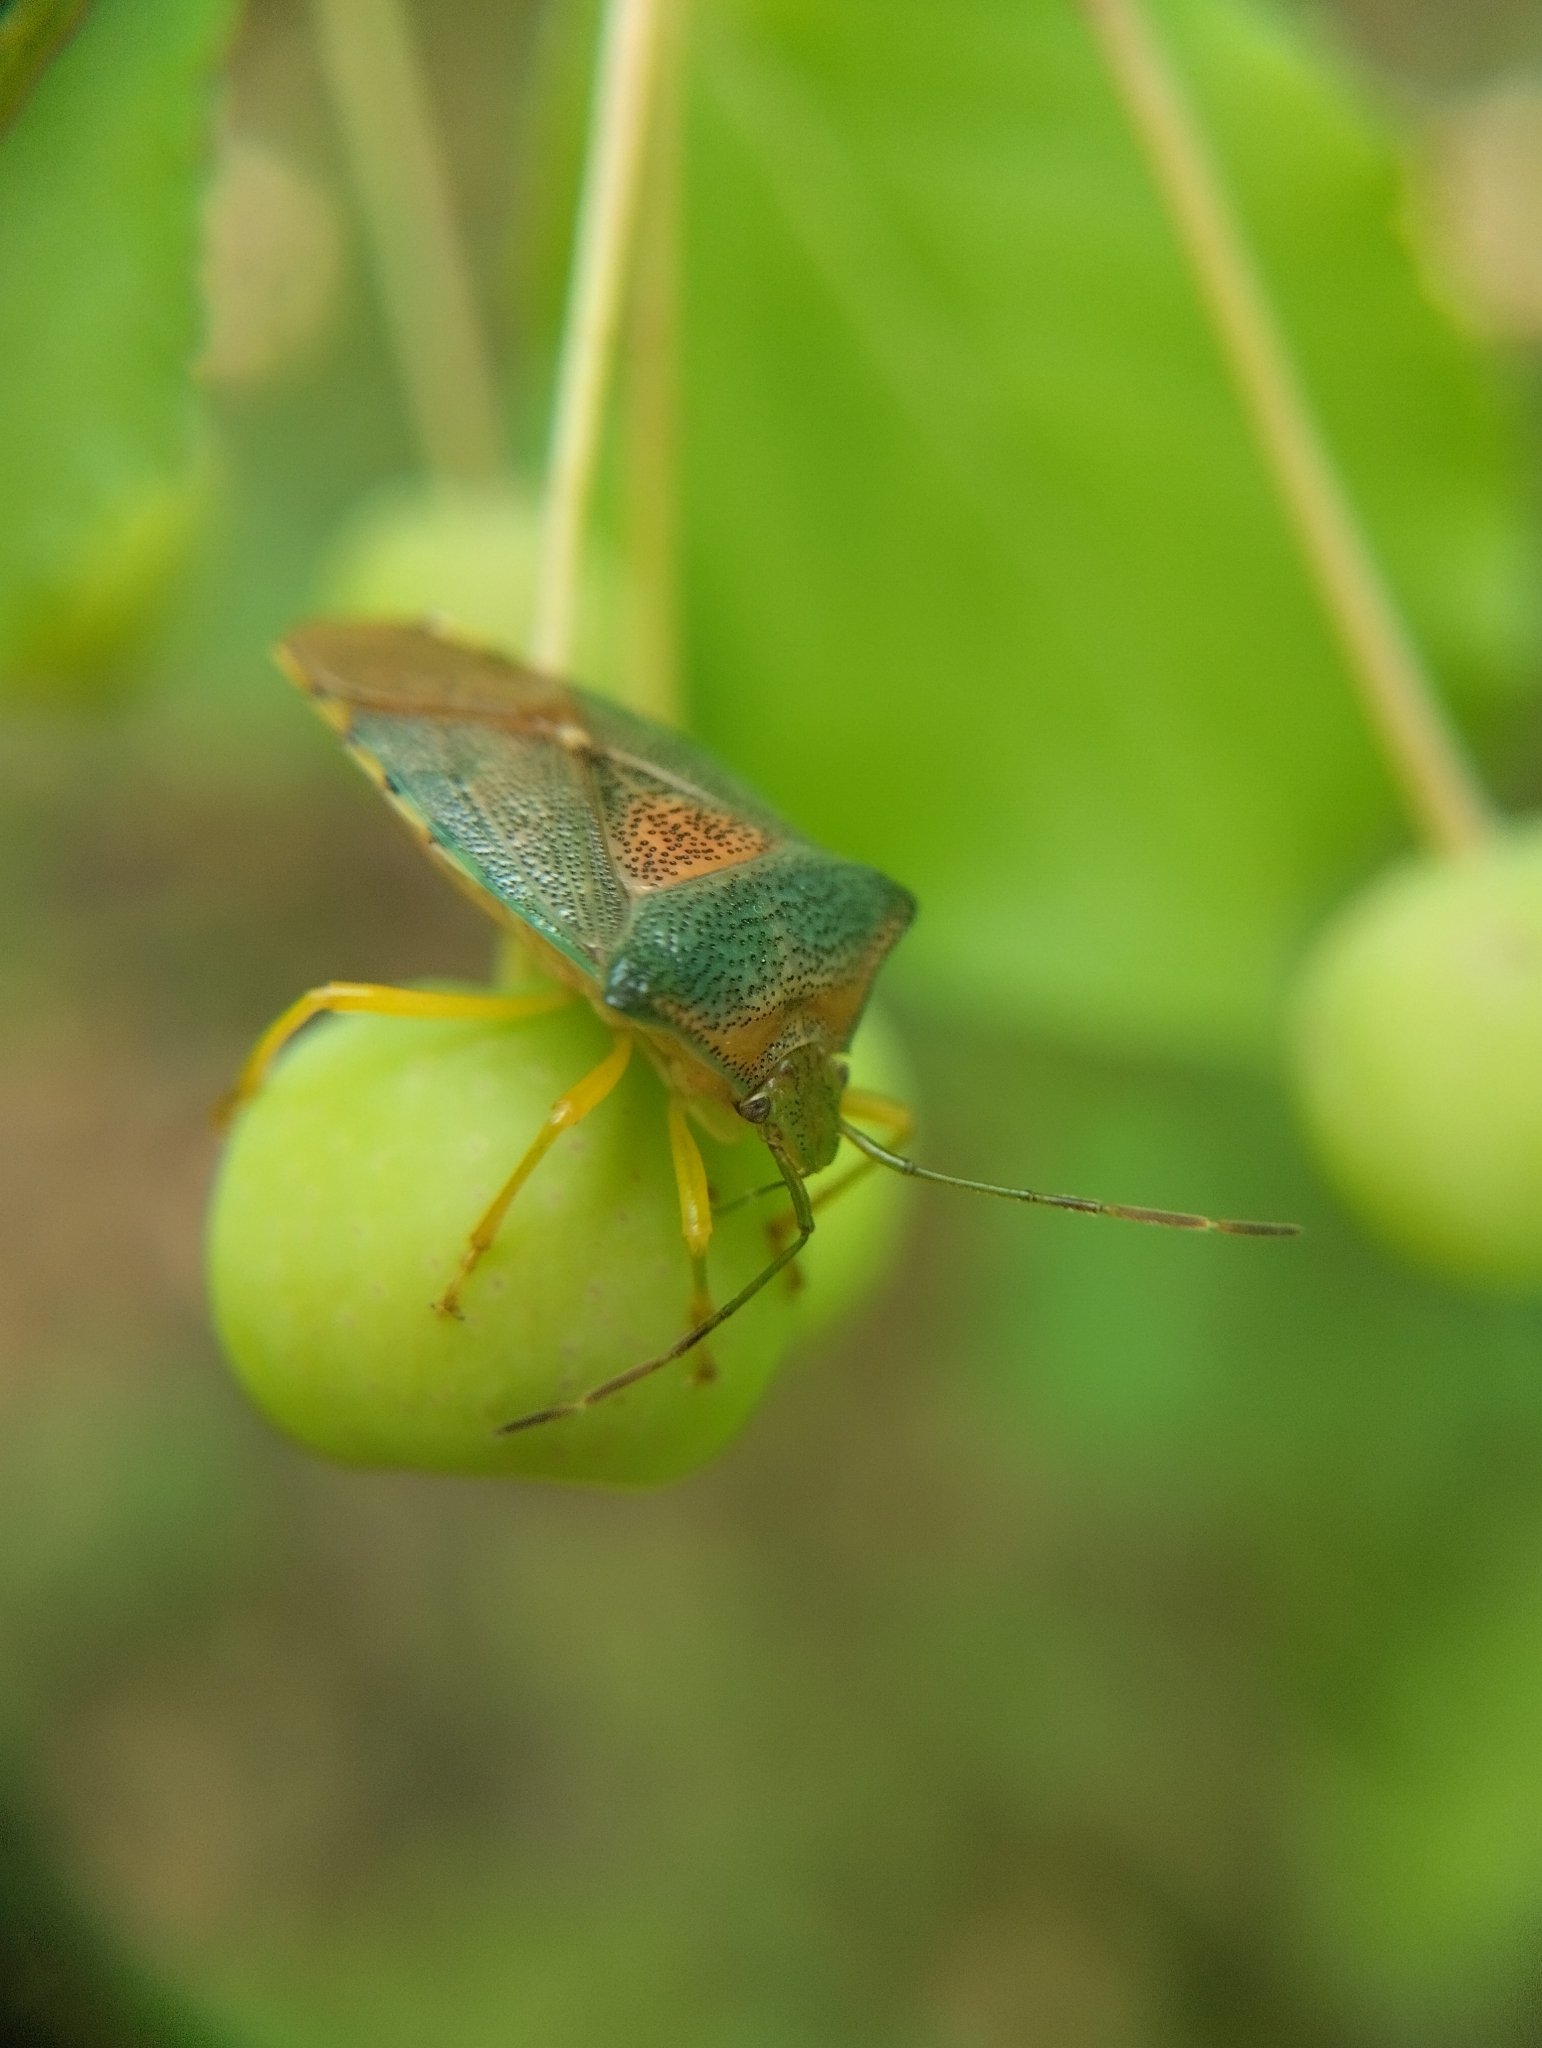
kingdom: Animalia
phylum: Arthropoda
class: Insecta
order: Hemiptera
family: Acanthosomatidae
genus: Acanthosoma
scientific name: Acanthosoma denticaudum
